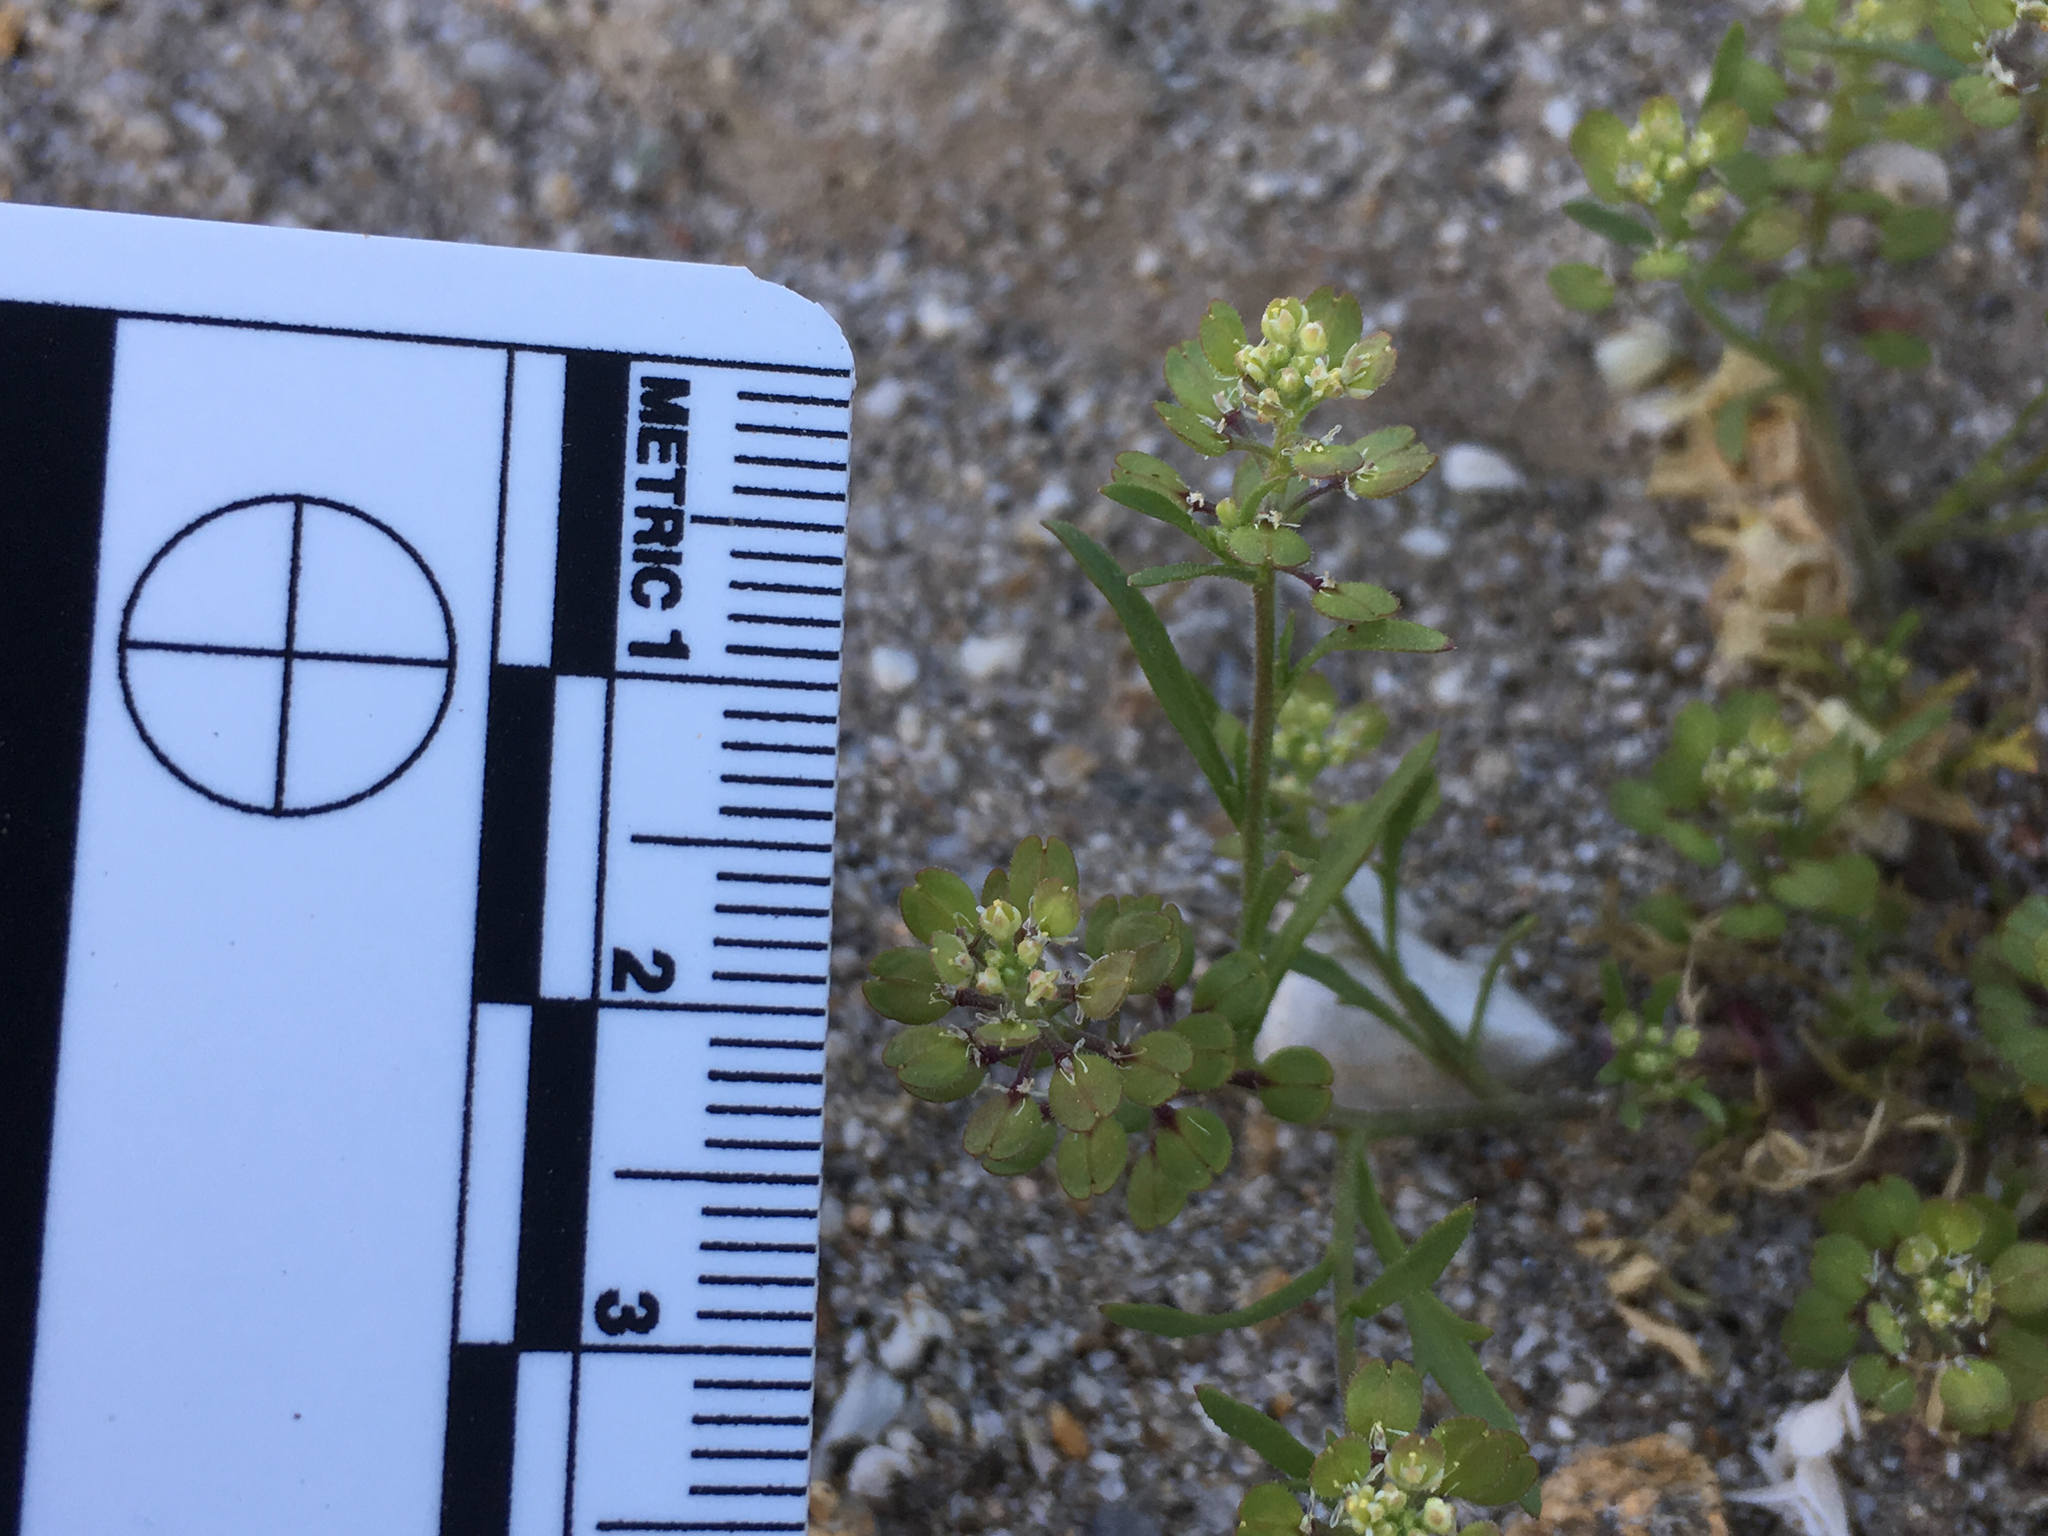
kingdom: Plantae
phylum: Tracheophyta
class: Magnoliopsida
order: Brassicales
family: Brassicaceae
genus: Lepidium
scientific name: Lepidium lasiocarpum
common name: Hairy-pod pepperwort
